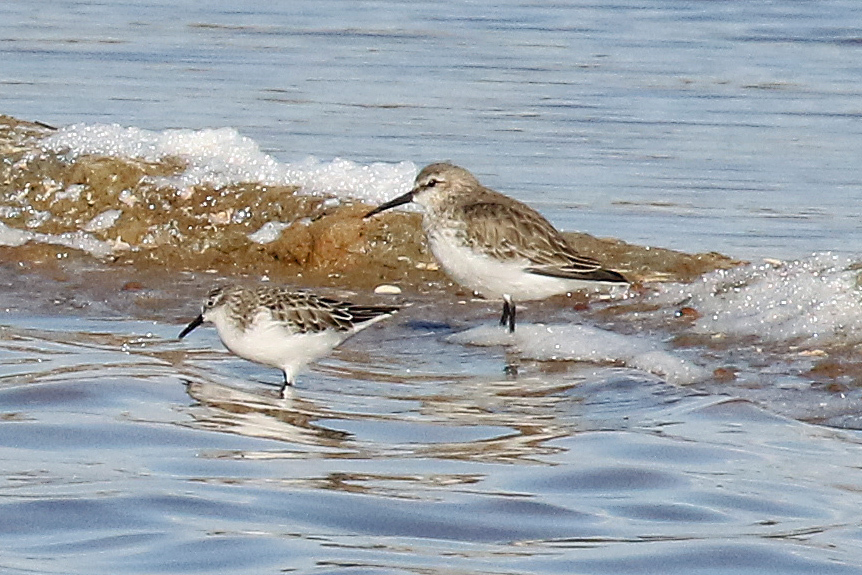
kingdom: Animalia
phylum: Chordata
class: Aves
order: Charadriiformes
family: Scolopacidae
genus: Calidris
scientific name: Calidris minuta
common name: Little stint
